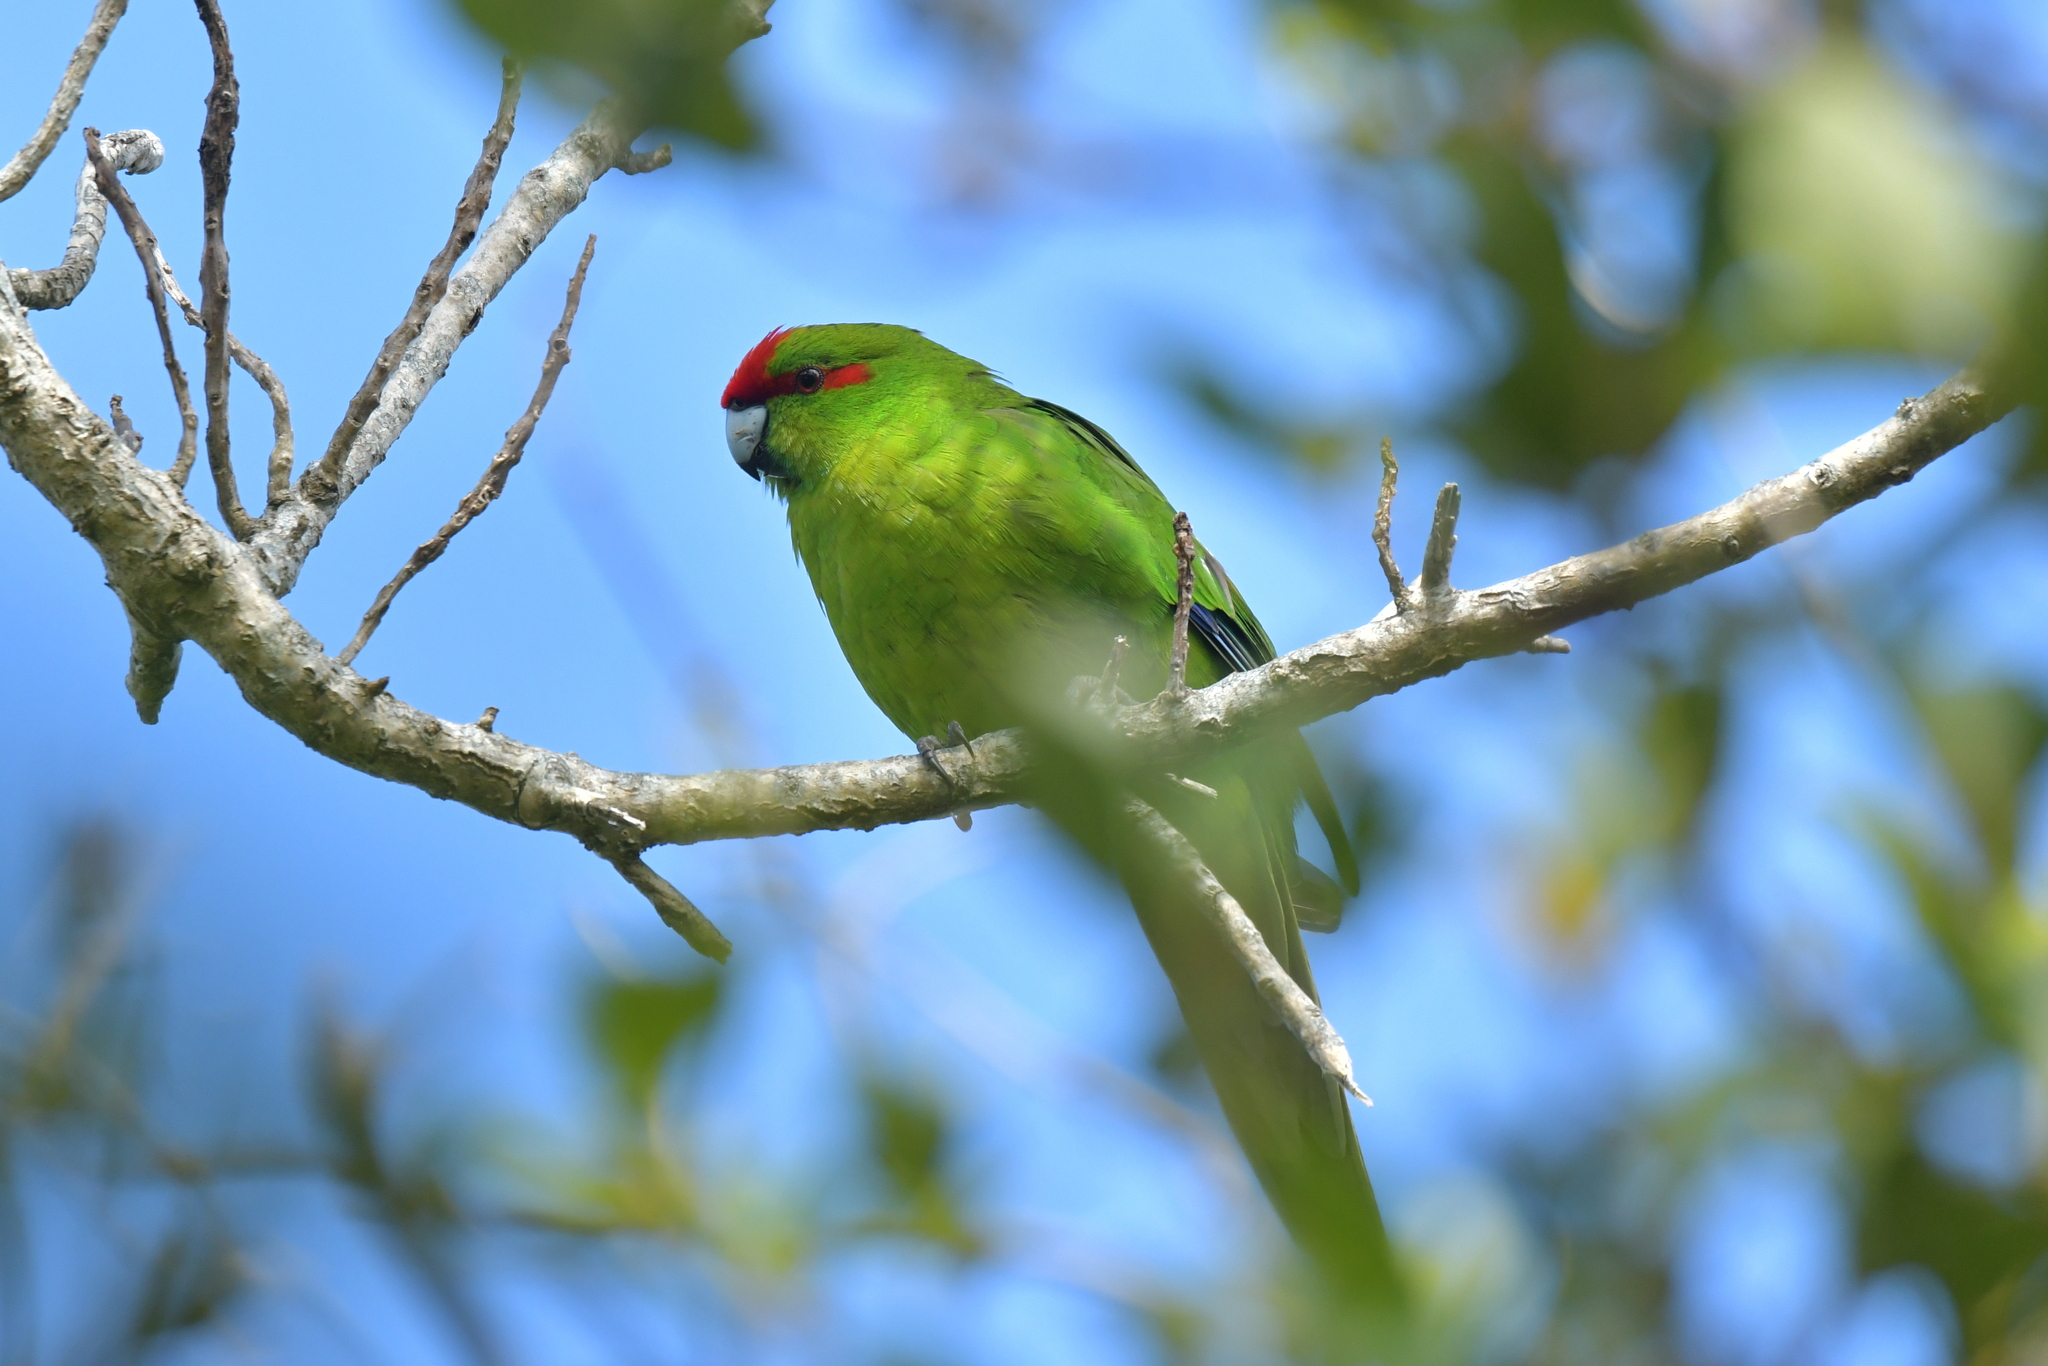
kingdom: Animalia
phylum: Chordata
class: Aves
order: Psittaciformes
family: Psittacidae
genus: Cyanoramphus
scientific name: Cyanoramphus novaezelandiae
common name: Red-fronted parakeet
